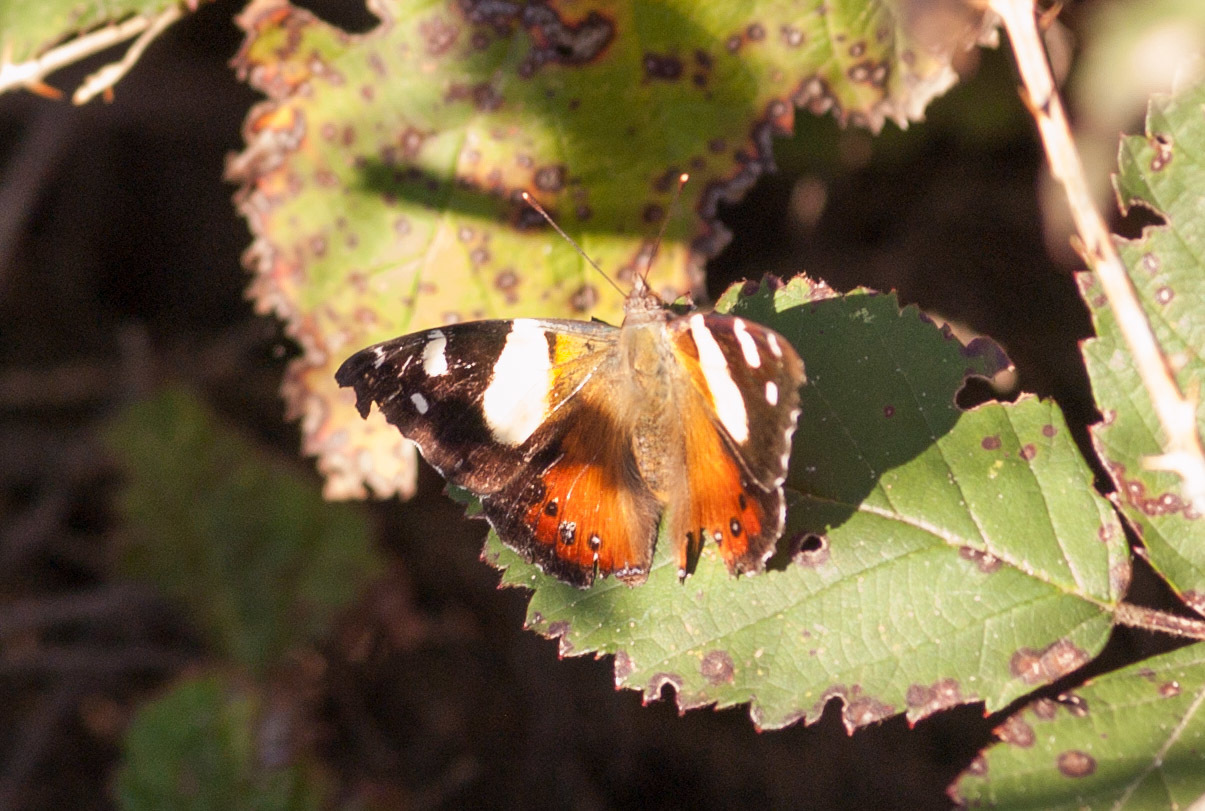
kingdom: Animalia
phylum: Arthropoda
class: Insecta
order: Lepidoptera
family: Nymphalidae
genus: Vanessa
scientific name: Vanessa itea
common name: Yellow admiral
